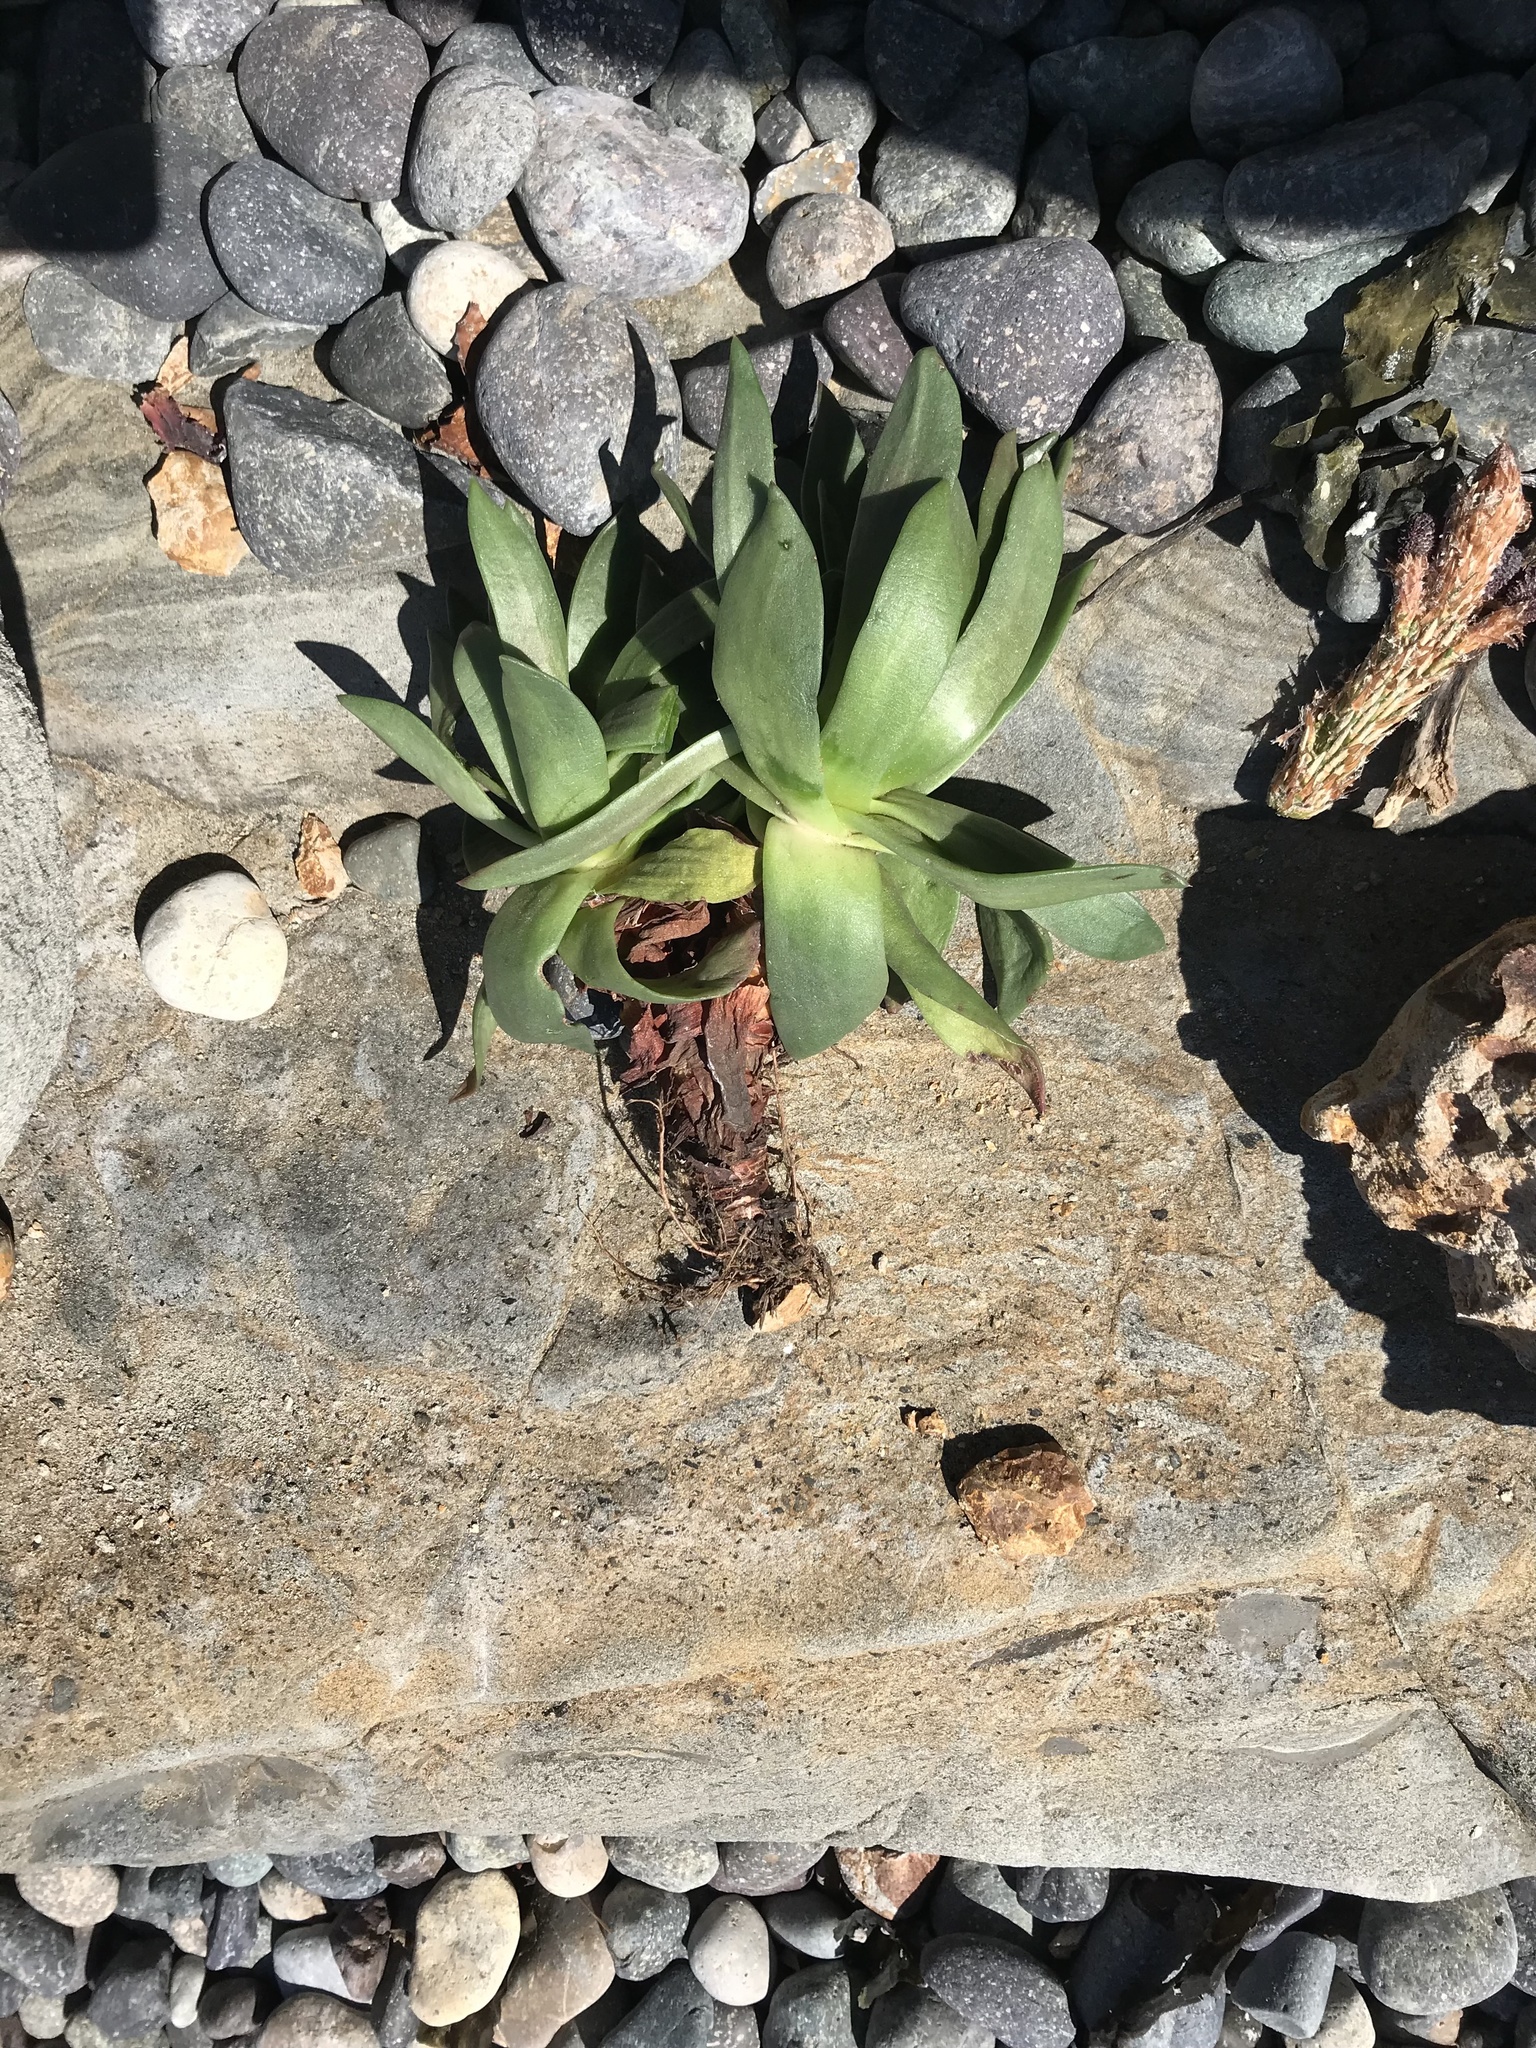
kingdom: Plantae
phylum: Tracheophyta
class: Magnoliopsida
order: Saxifragales
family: Crassulaceae
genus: Dudleya
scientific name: Dudleya caespitosa
